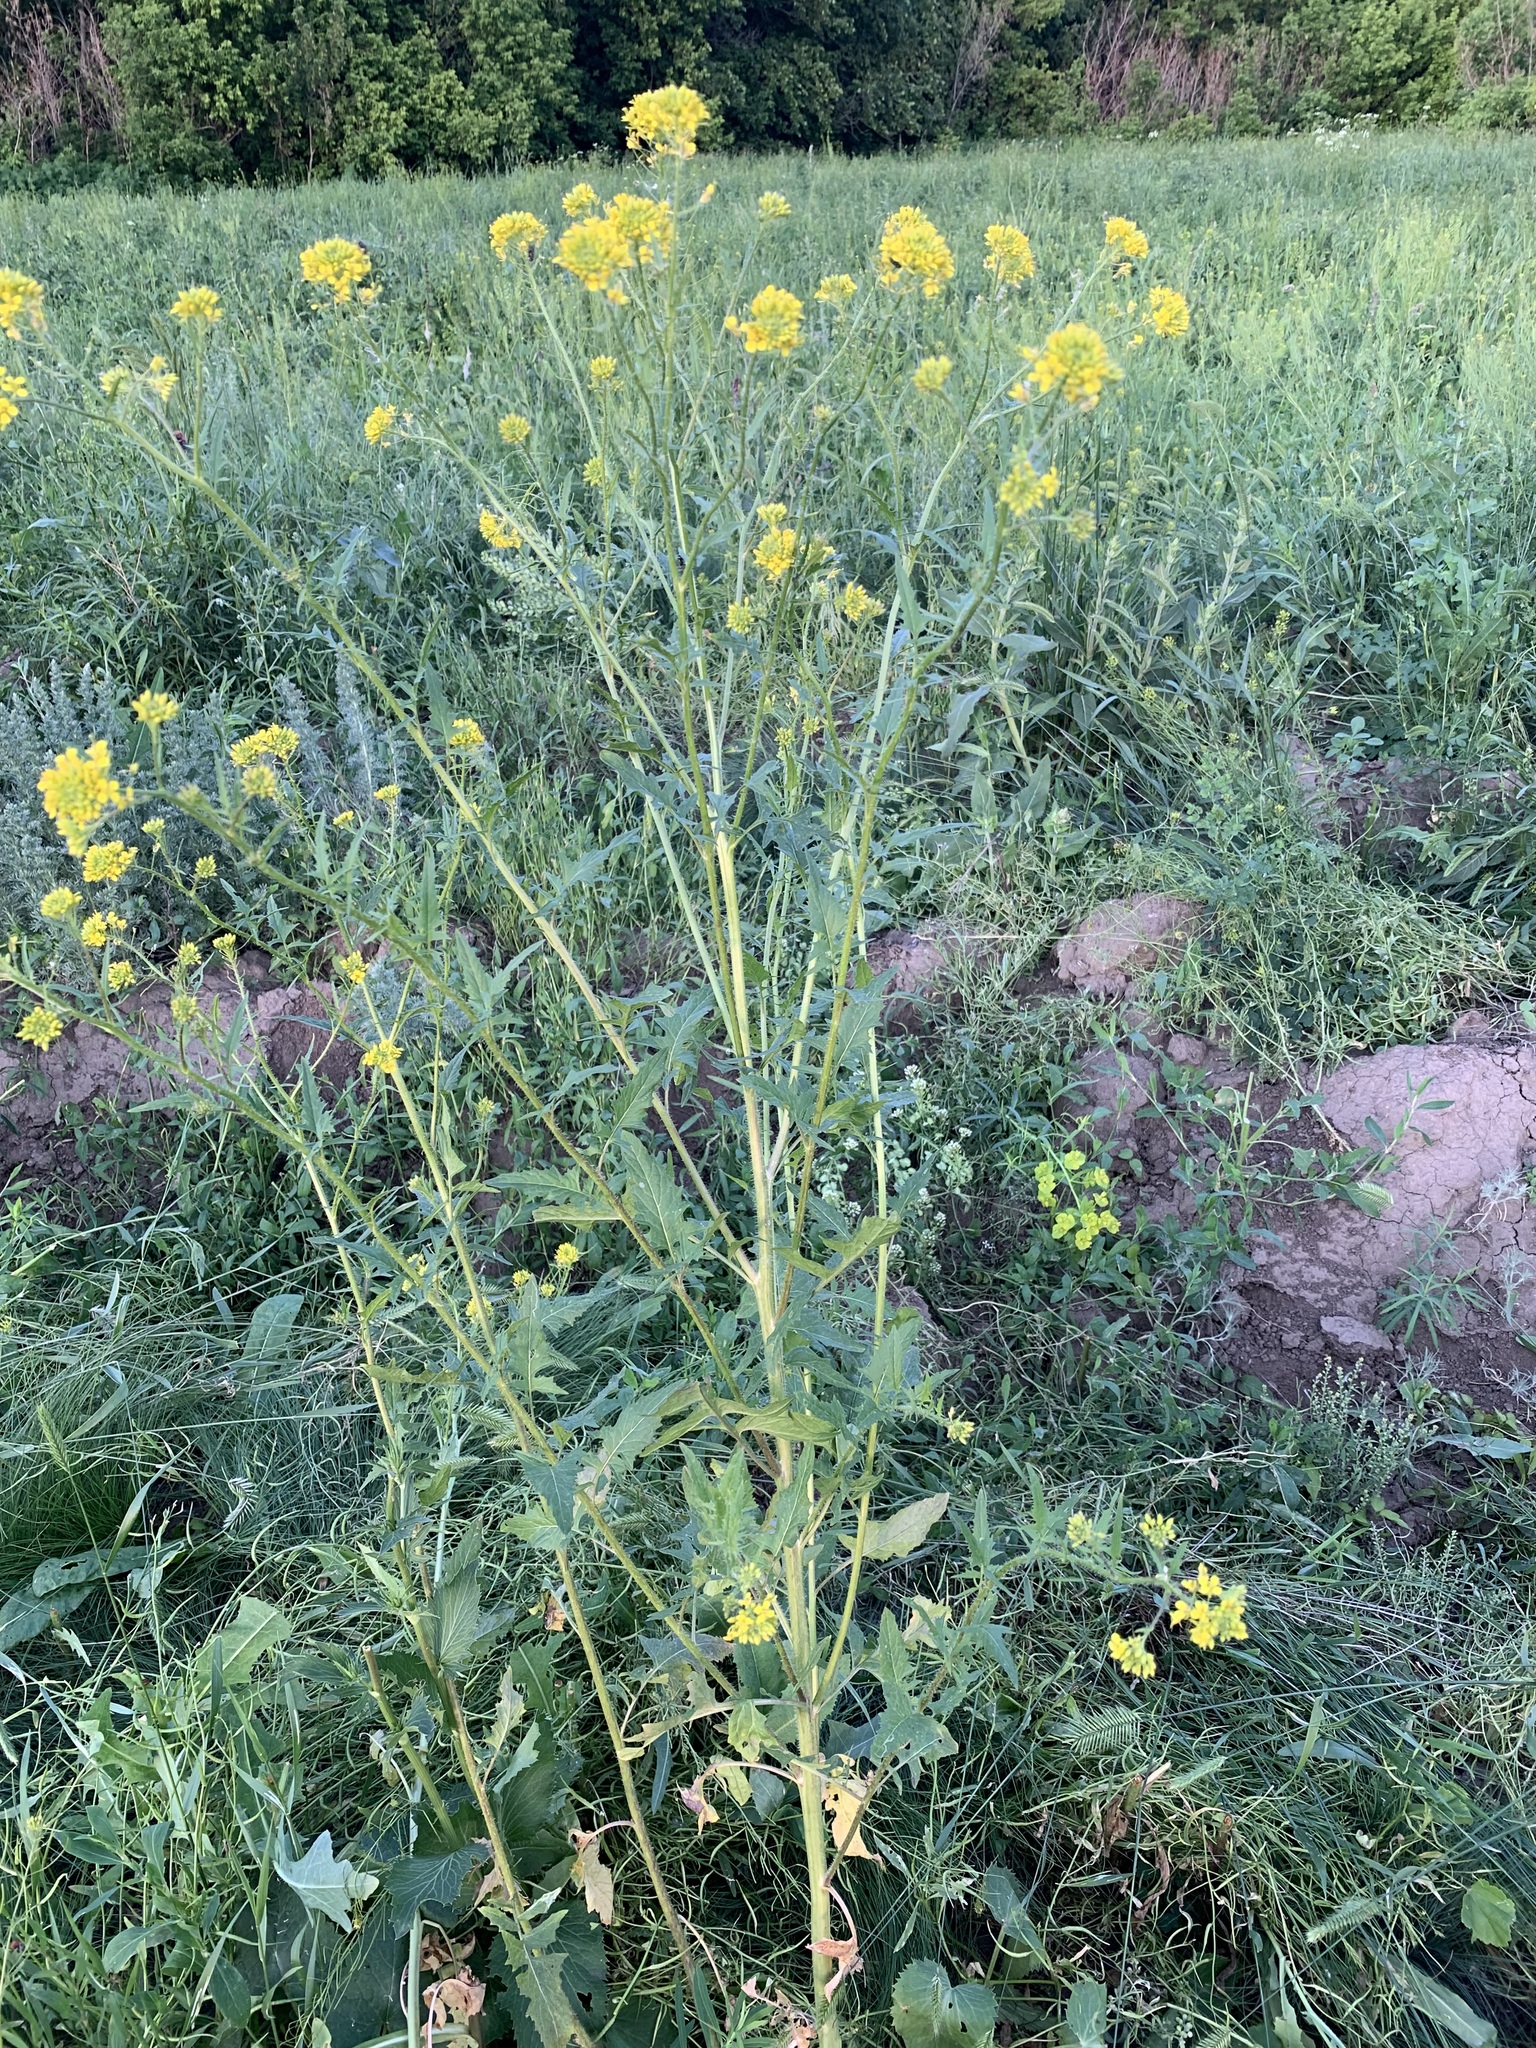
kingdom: Plantae
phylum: Tracheophyta
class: Magnoliopsida
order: Brassicales
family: Brassicaceae
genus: Sisymbrium
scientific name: Sisymbrium loeselii
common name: False london-rocket
